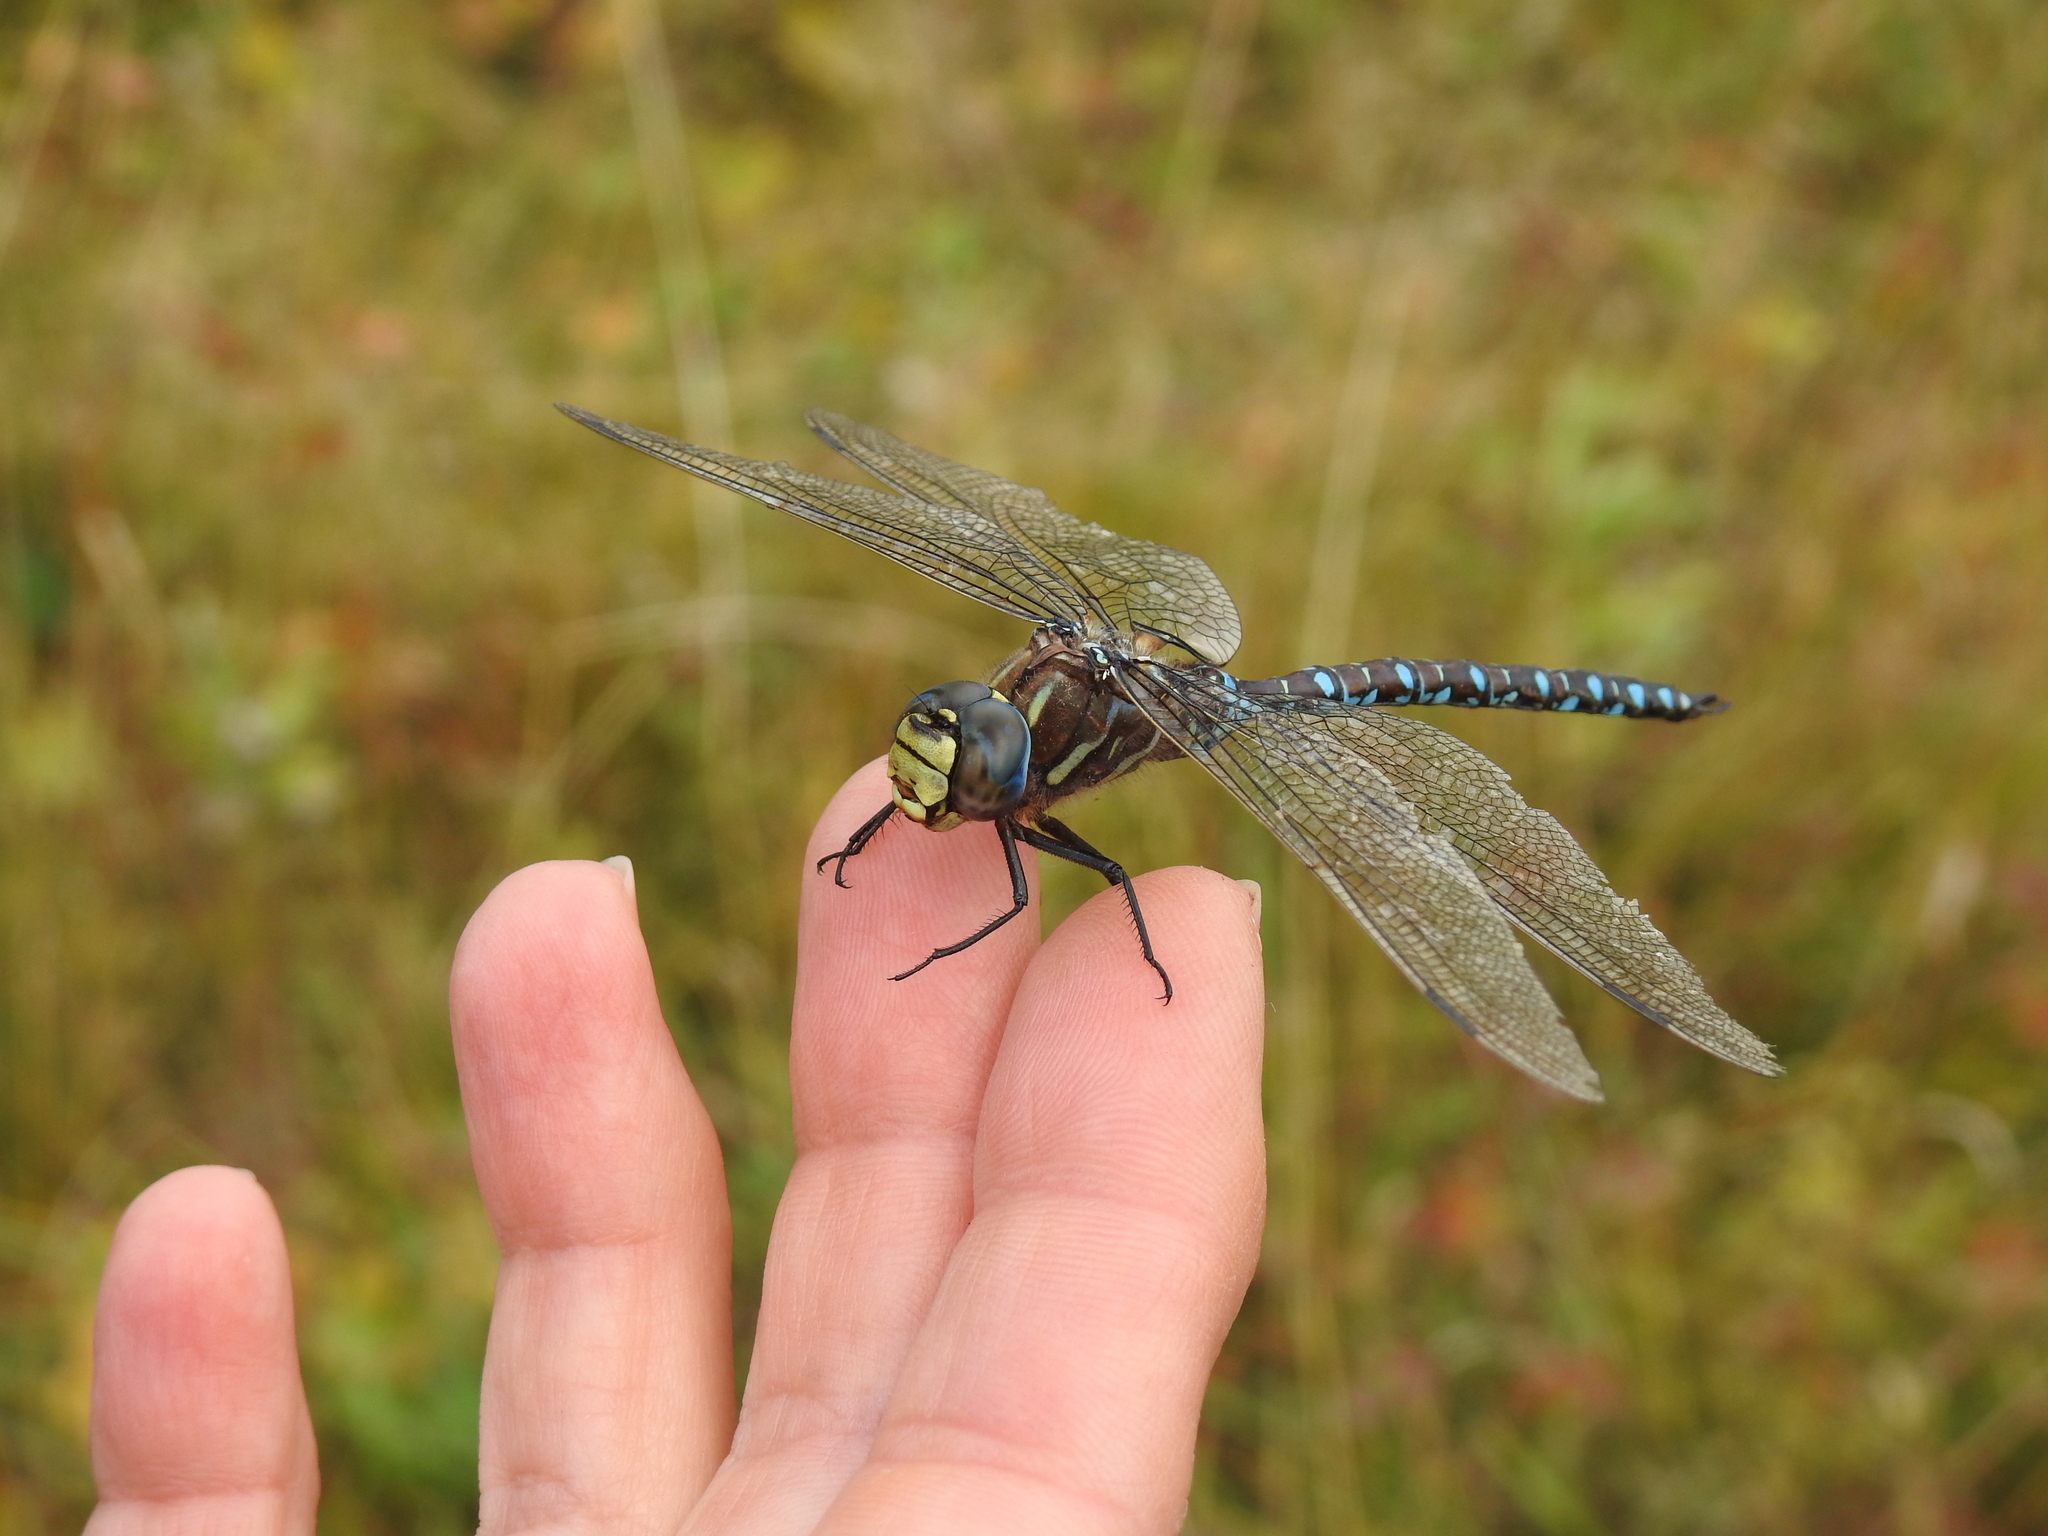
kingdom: Animalia
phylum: Arthropoda
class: Insecta
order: Odonata
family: Aeshnidae
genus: Aeshna
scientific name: Aeshna juncea
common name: Moorland hawker
